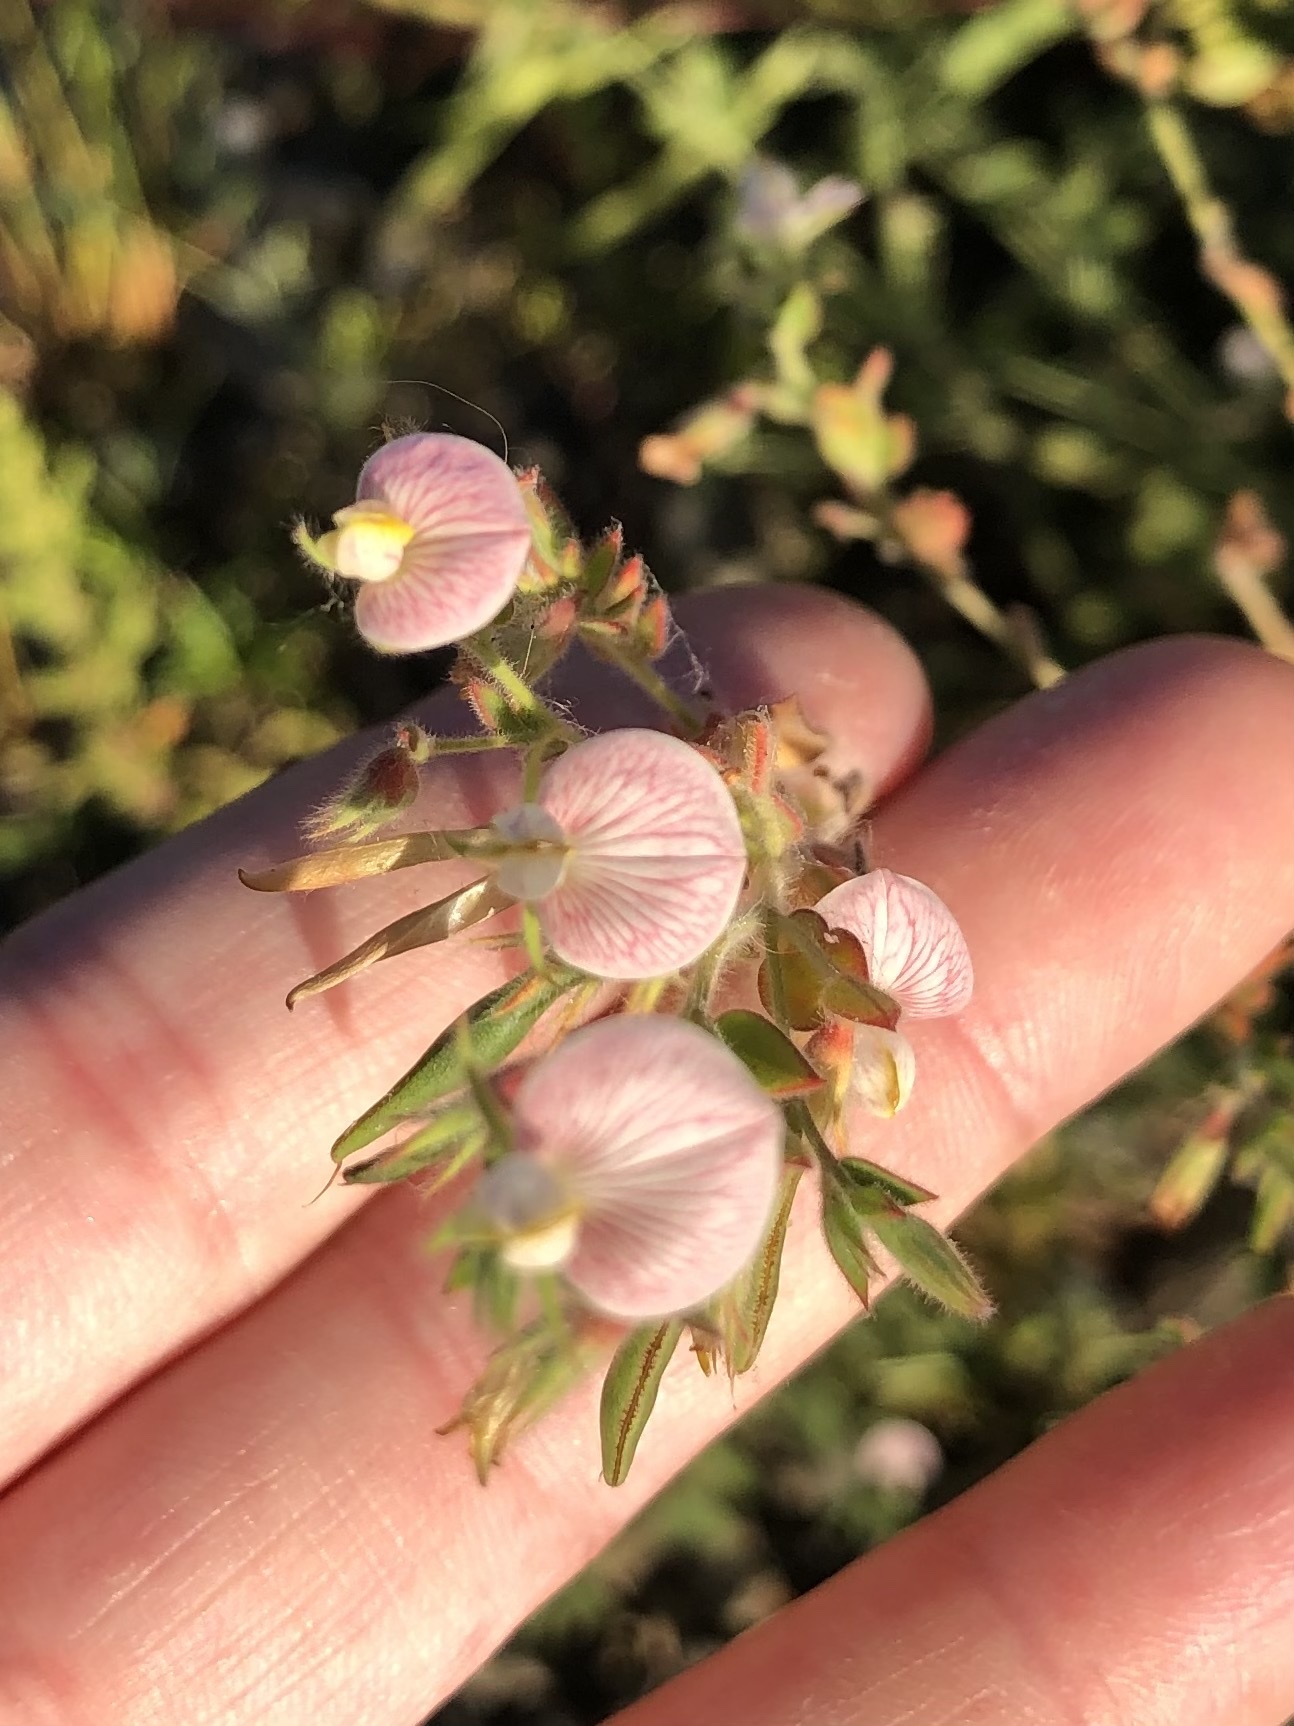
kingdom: Plantae
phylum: Tracheophyta
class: Magnoliopsida
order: Fabales
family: Fabaceae
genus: Acmispon
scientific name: Acmispon americanus
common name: American bird's-foot trefoil
